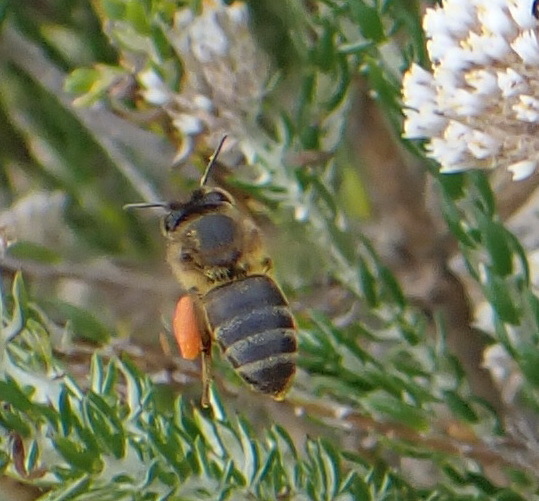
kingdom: Animalia
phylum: Arthropoda
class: Insecta
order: Hymenoptera
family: Apidae
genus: Apis
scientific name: Apis mellifera
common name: Honey bee
